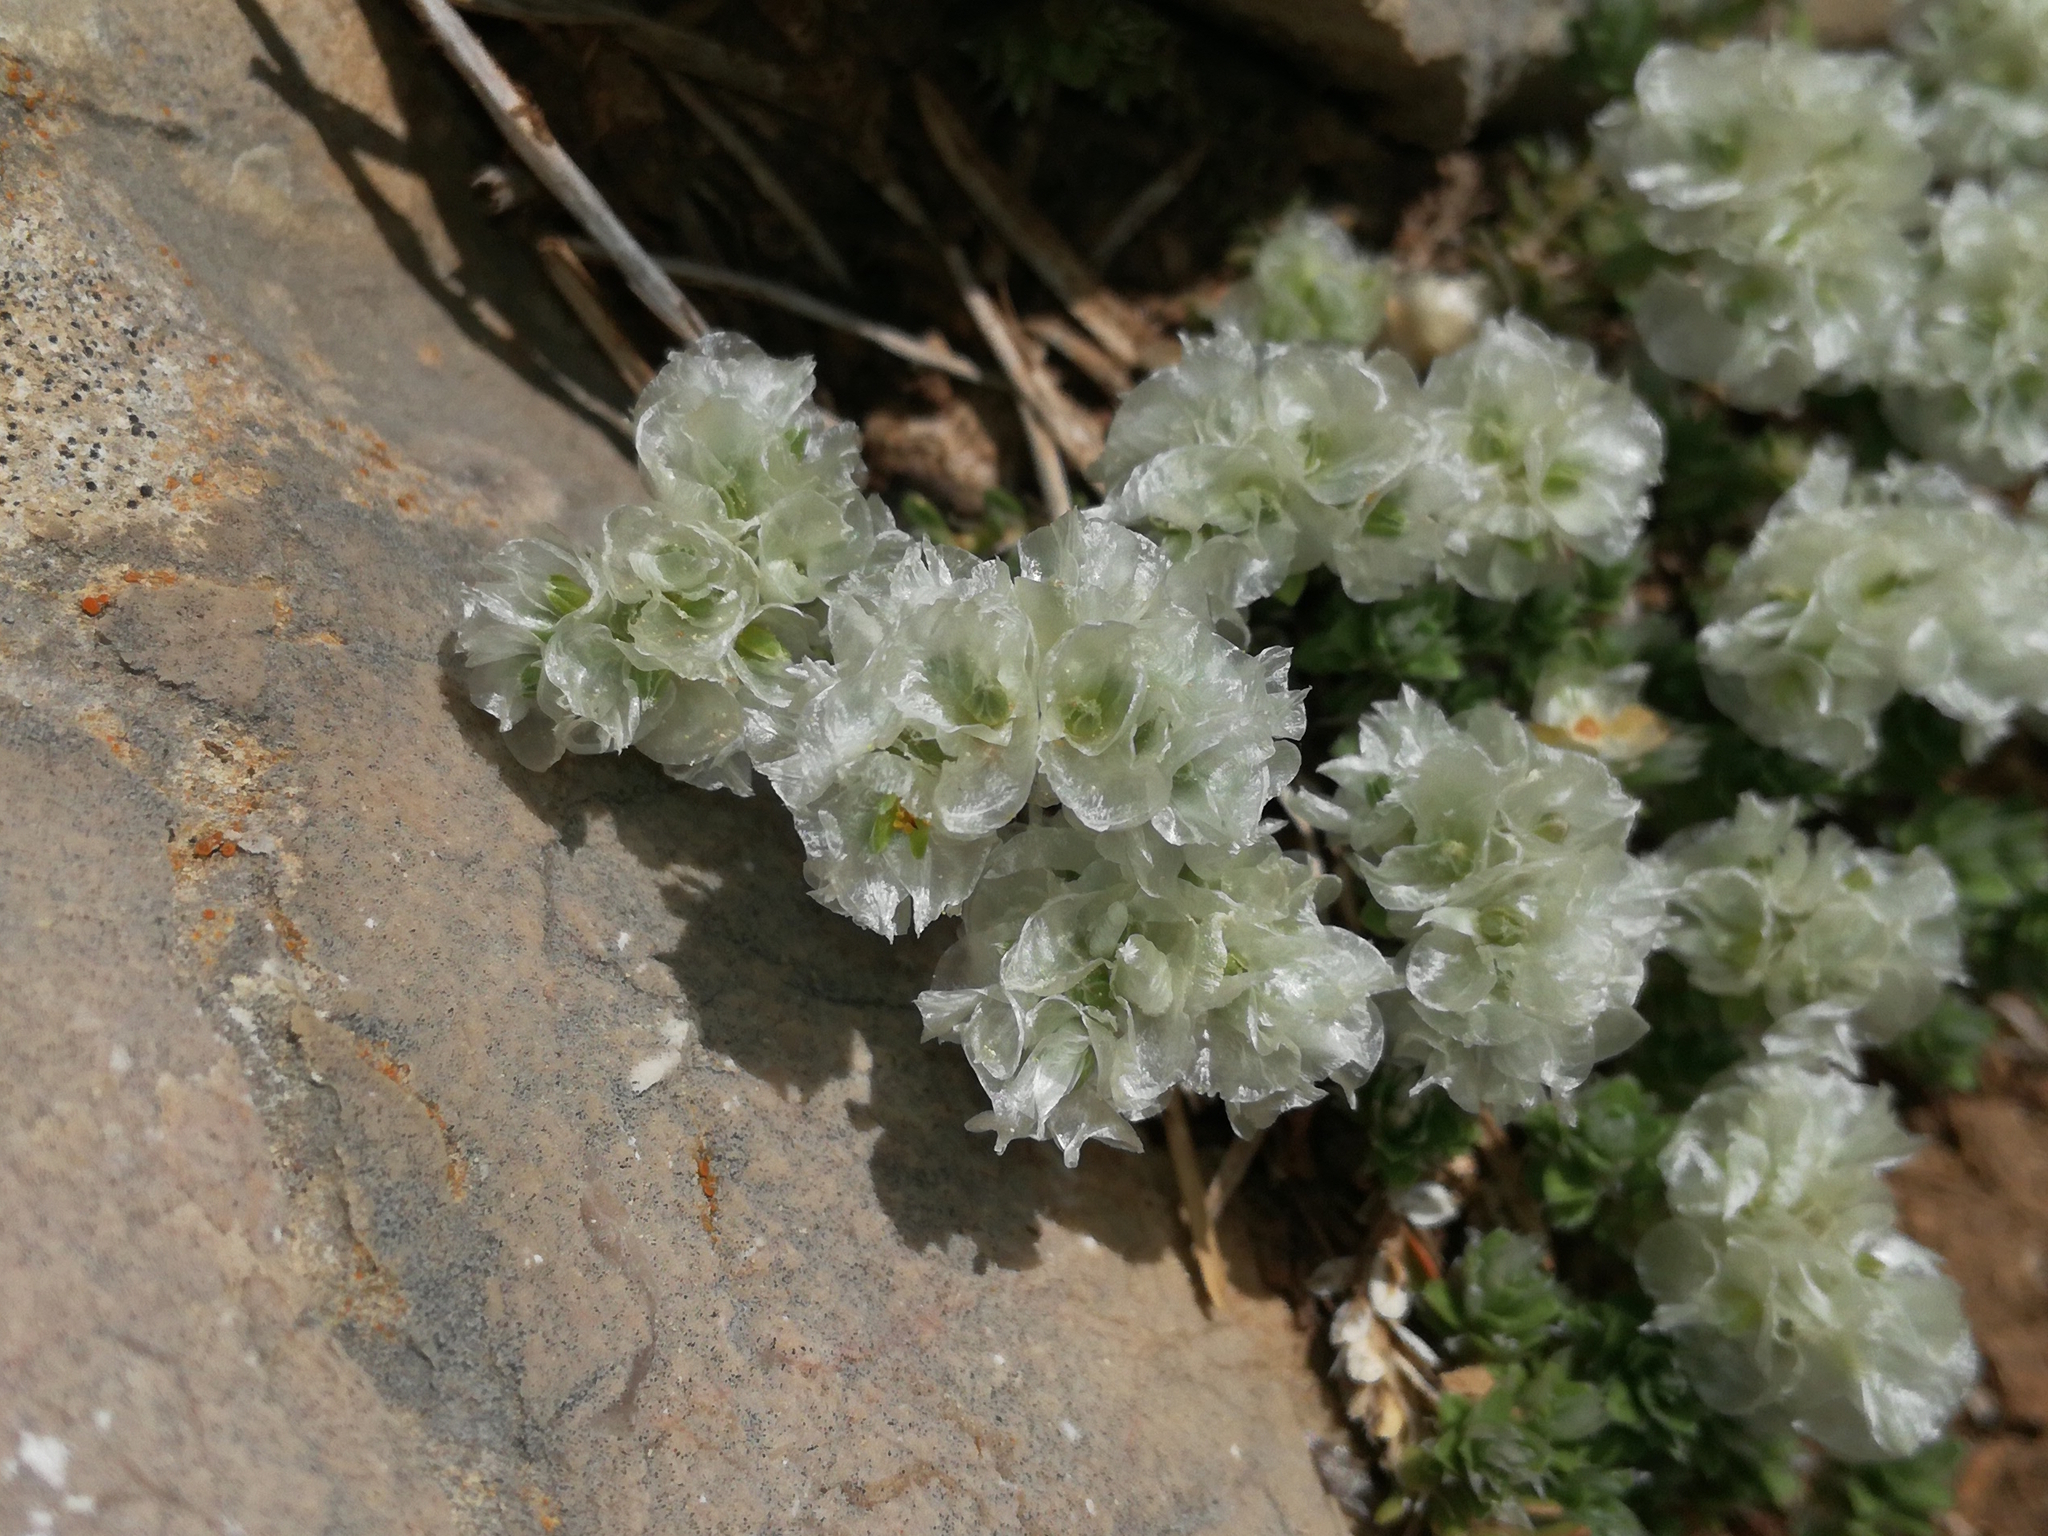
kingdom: Plantae
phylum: Tracheophyta
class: Magnoliopsida
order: Caryophyllales
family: Caryophyllaceae
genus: Paronychia
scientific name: Paronychia kapela
